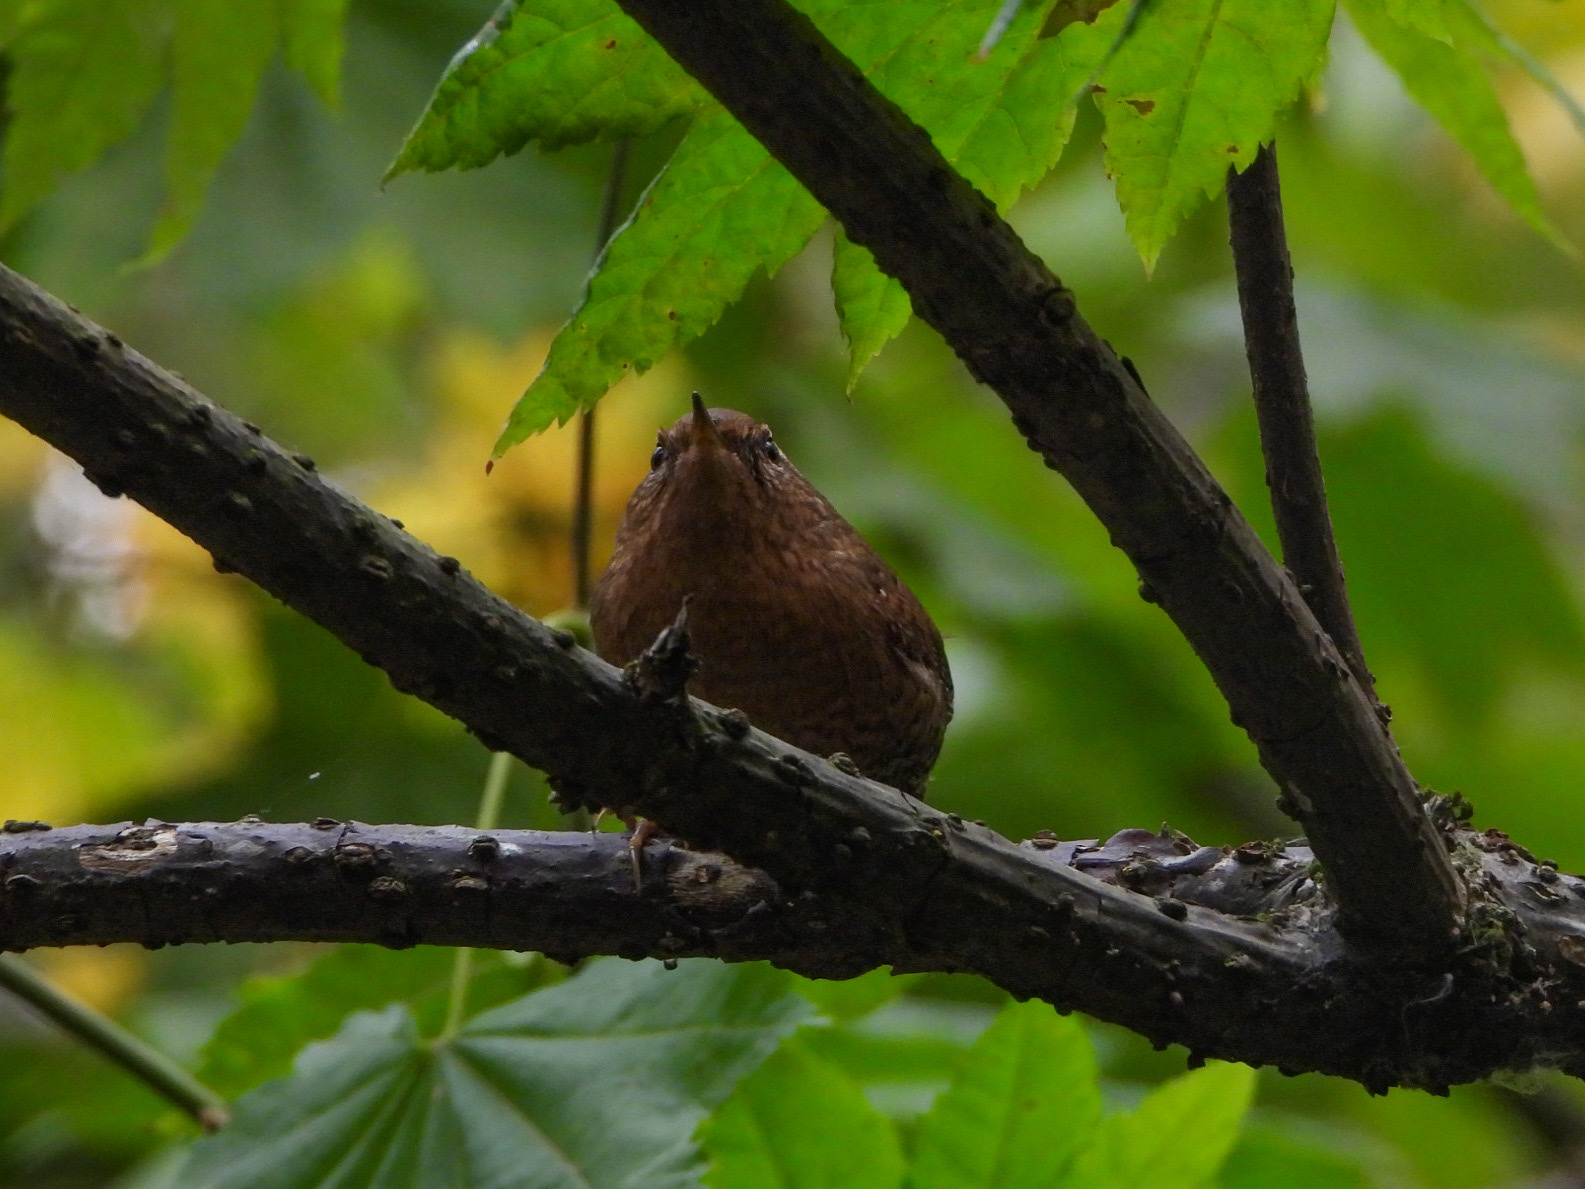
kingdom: Animalia
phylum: Chordata
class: Aves
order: Passeriformes
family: Troglodytidae
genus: Troglodytes
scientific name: Troglodytes pacificus
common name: Pacific wren
